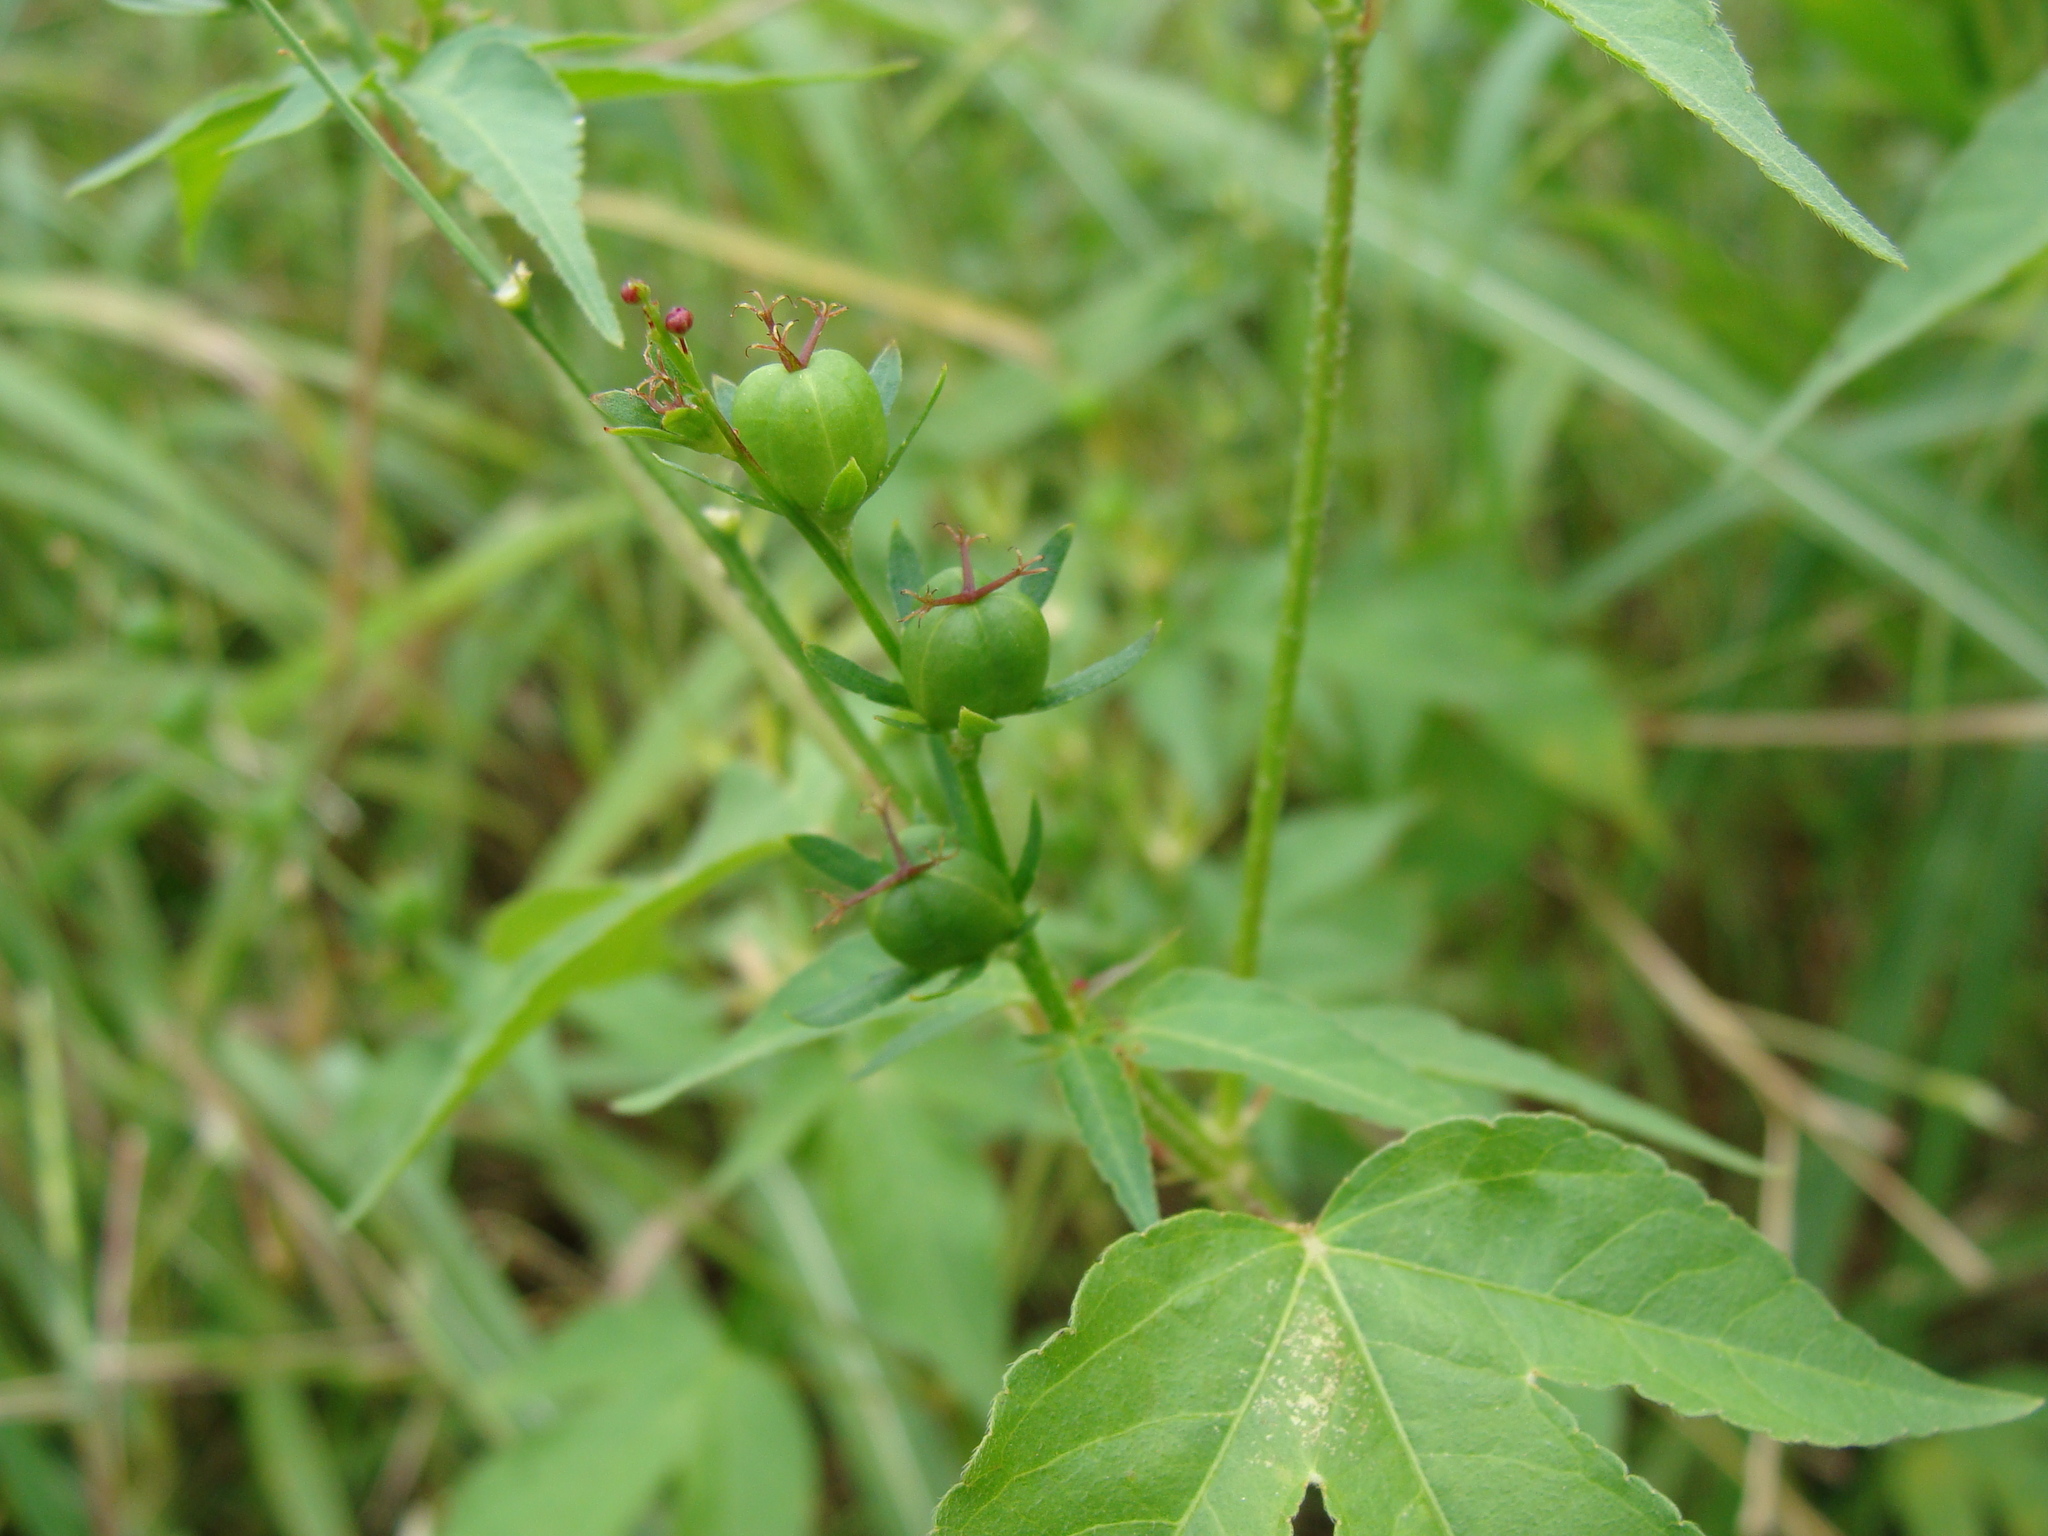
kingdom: Plantae
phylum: Tracheophyta
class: Magnoliopsida
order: Malpighiales
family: Euphorbiaceae
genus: Astraea
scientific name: Astraea lobata
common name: Lobed croton
